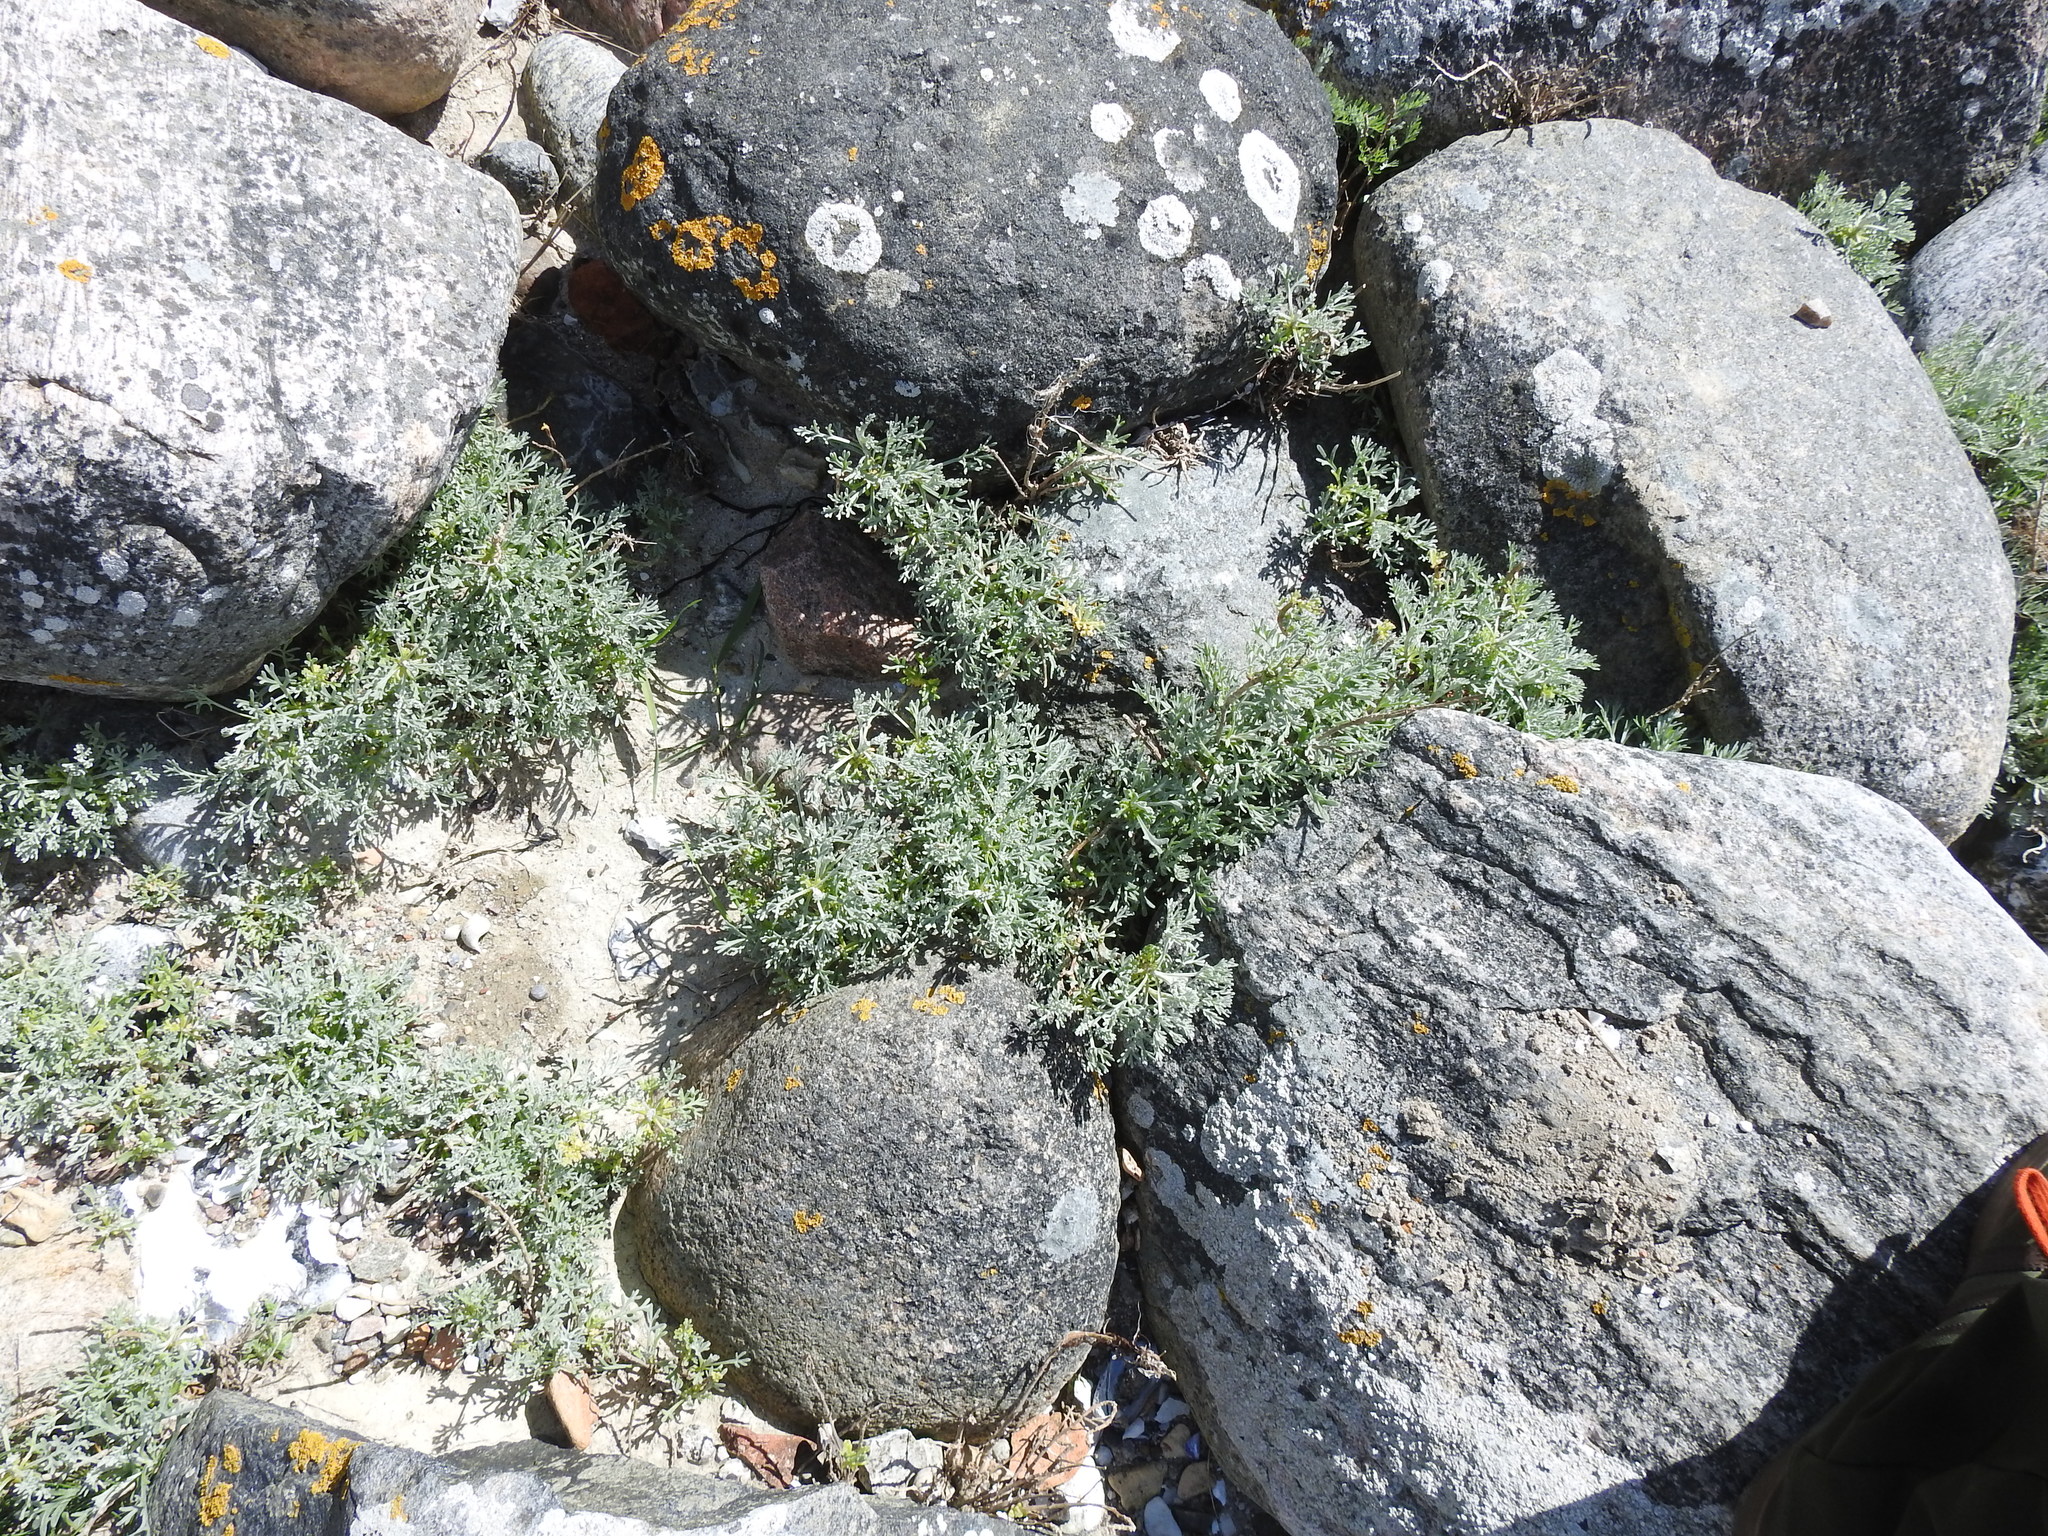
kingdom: Plantae
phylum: Tracheophyta
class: Magnoliopsida
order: Asterales
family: Asteraceae
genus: Artemisia
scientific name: Artemisia maritima
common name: Wormseed
